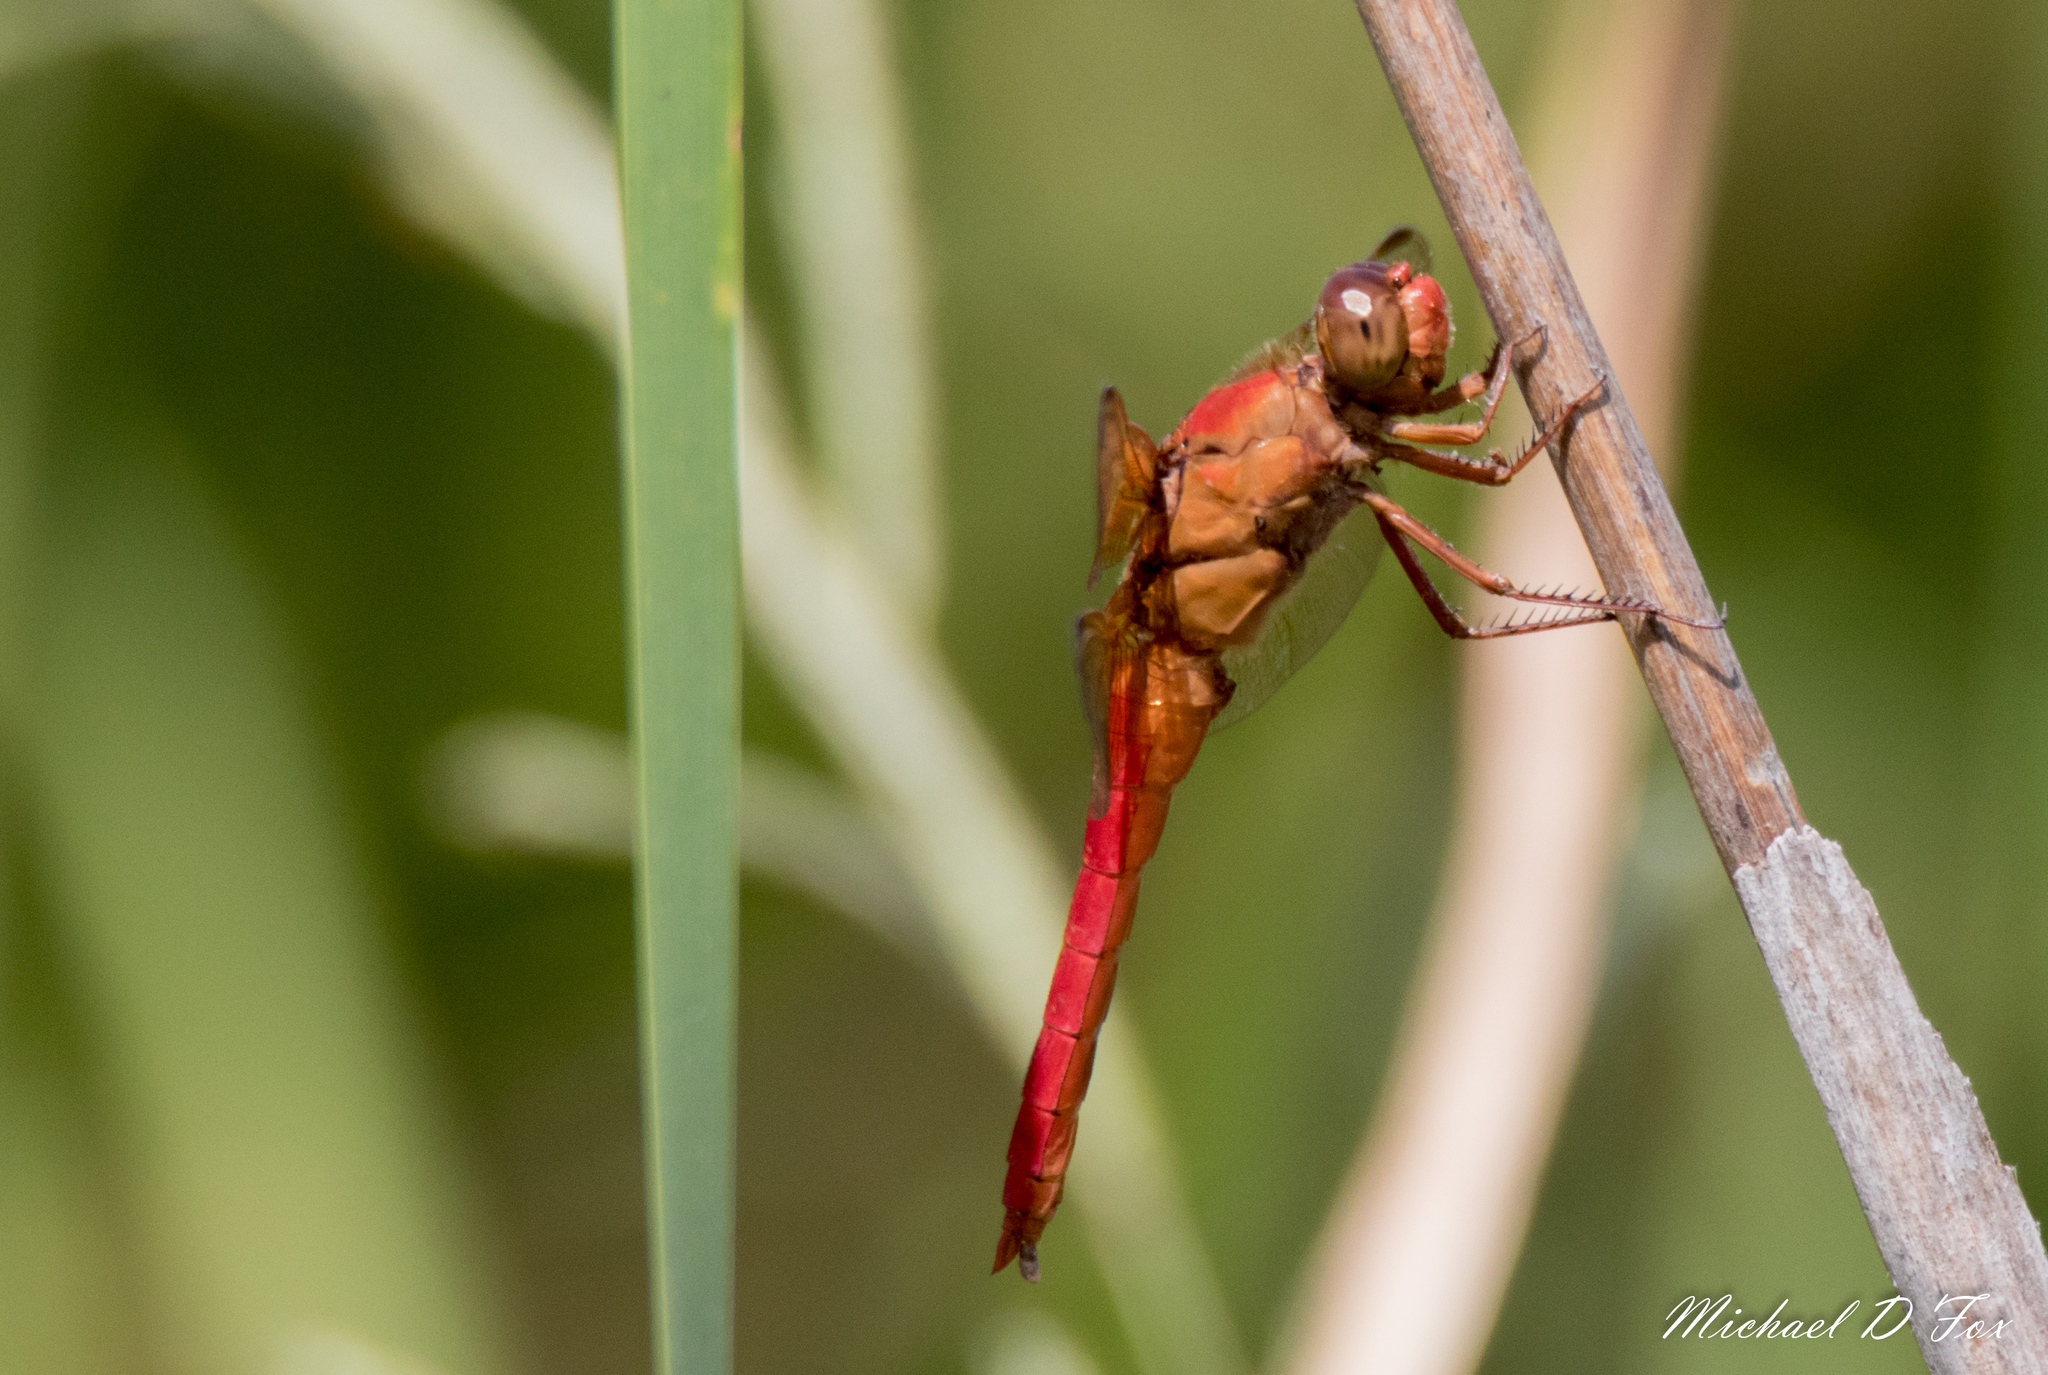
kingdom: Animalia
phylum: Arthropoda
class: Insecta
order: Odonata
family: Libellulidae
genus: Libellula
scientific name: Libellula croceipennis
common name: Neon skimmer
